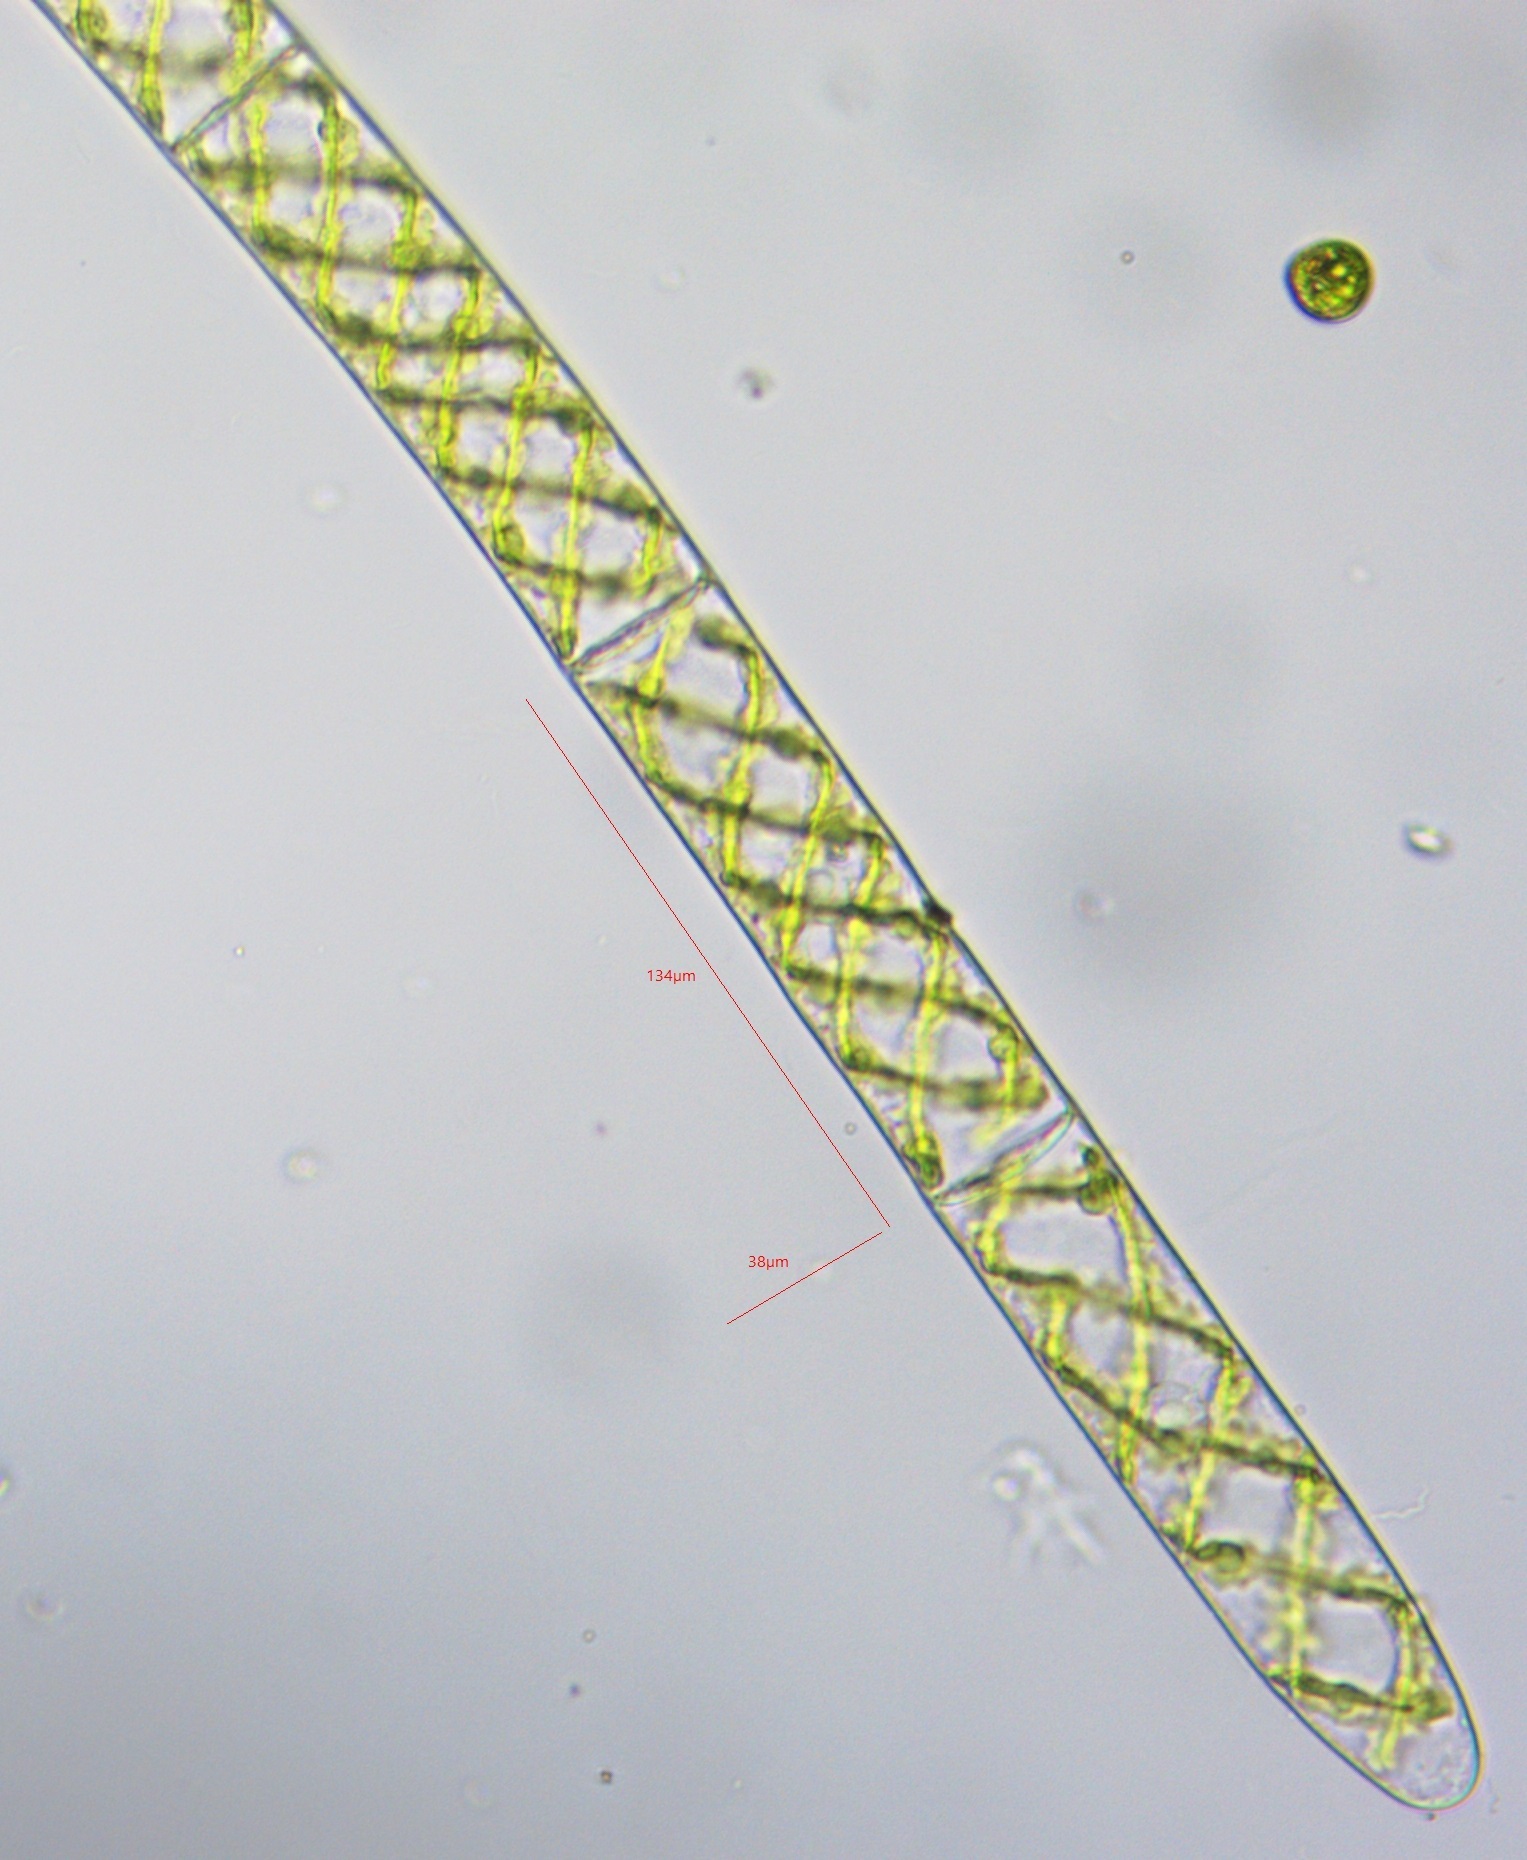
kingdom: Plantae
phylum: Charophyta
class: Zygnematophyceae
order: Zygnematales
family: Zygnemataceae
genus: Spirogyra
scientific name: Spirogyra
